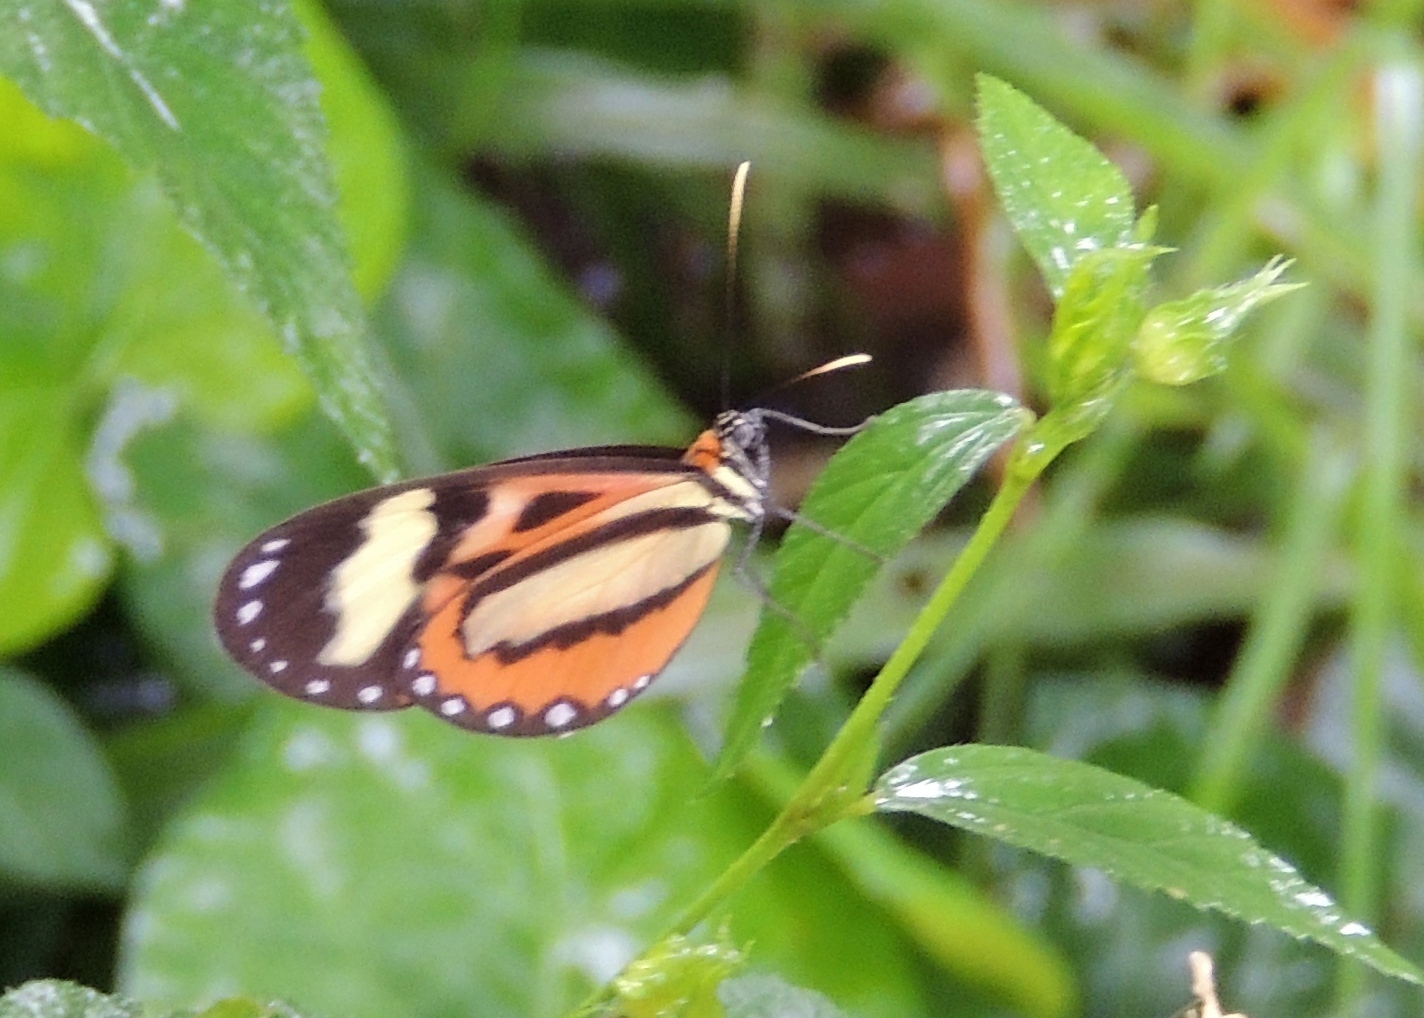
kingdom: Animalia
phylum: Arthropoda
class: Insecta
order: Lepidoptera
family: Nymphalidae
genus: Hypothyris
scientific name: Hypothyris euclea
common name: Euclea tigerwing
